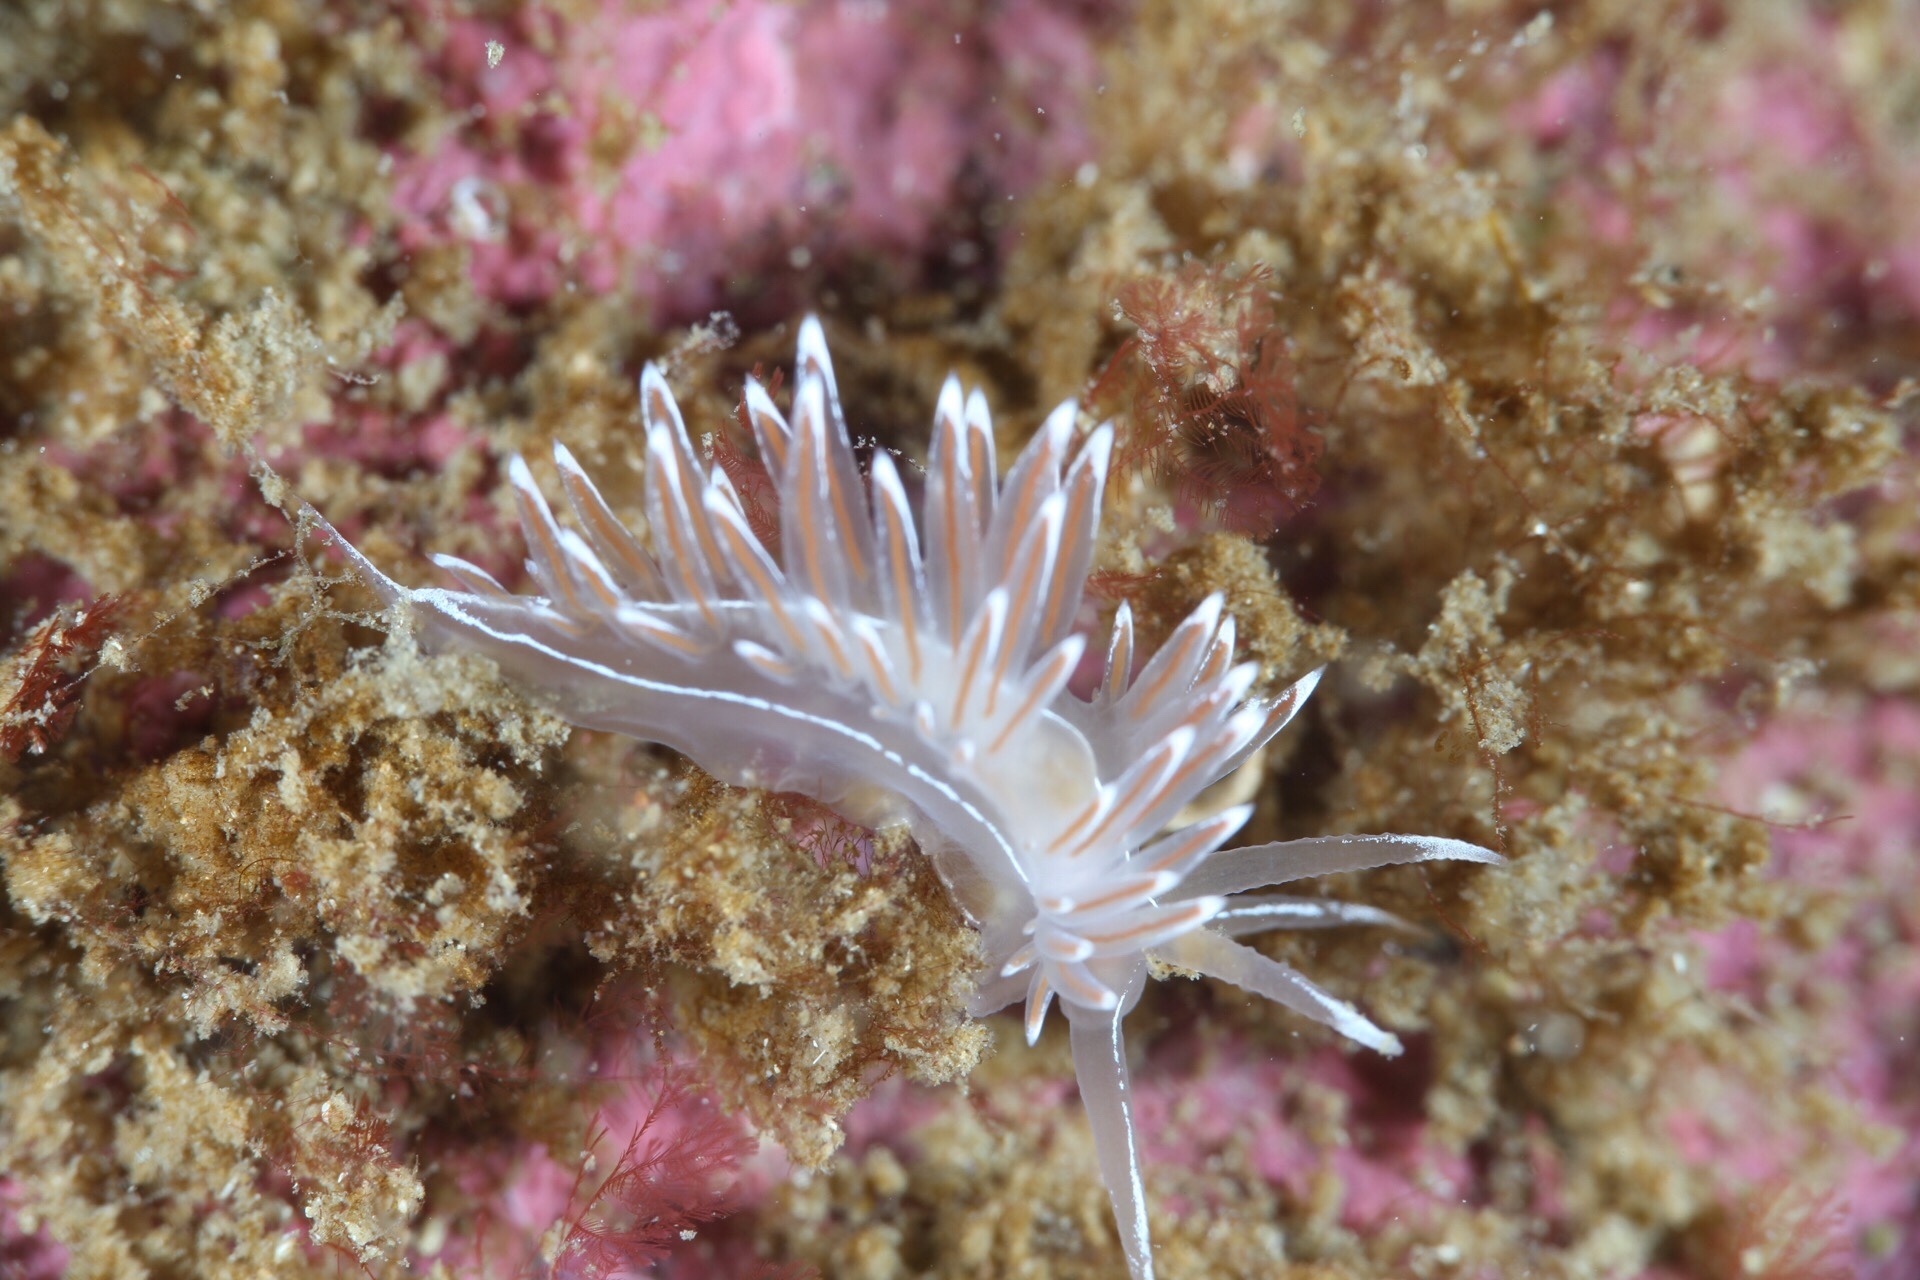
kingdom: Animalia
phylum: Mollusca
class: Gastropoda
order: Nudibranchia
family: Coryphellidae
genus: Coryphella
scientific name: Coryphella lineata
